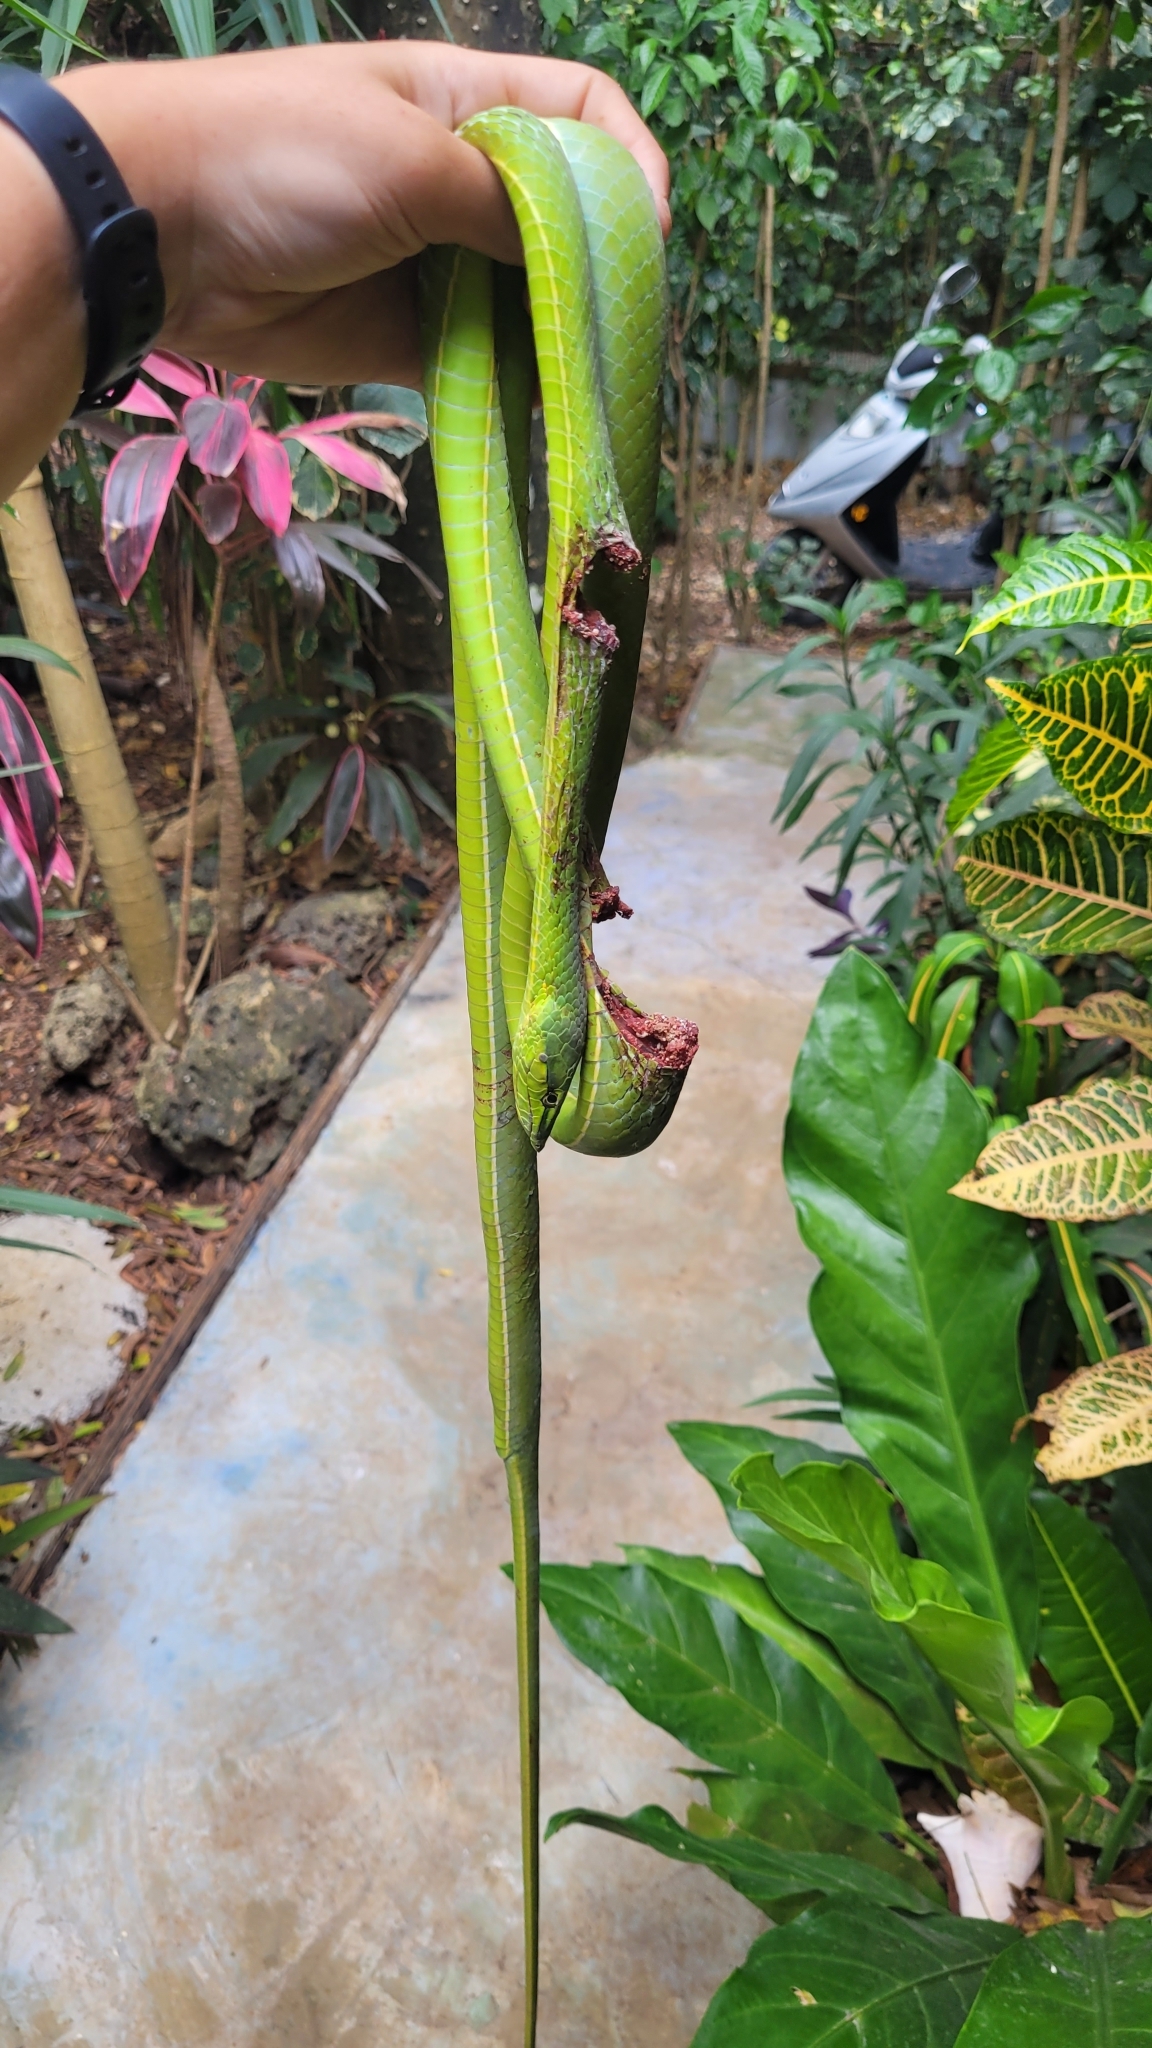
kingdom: Animalia
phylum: Chordata
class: Squamata
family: Colubridae
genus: Oxybelis
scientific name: Oxybelis fulgidus
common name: Green vine snake
